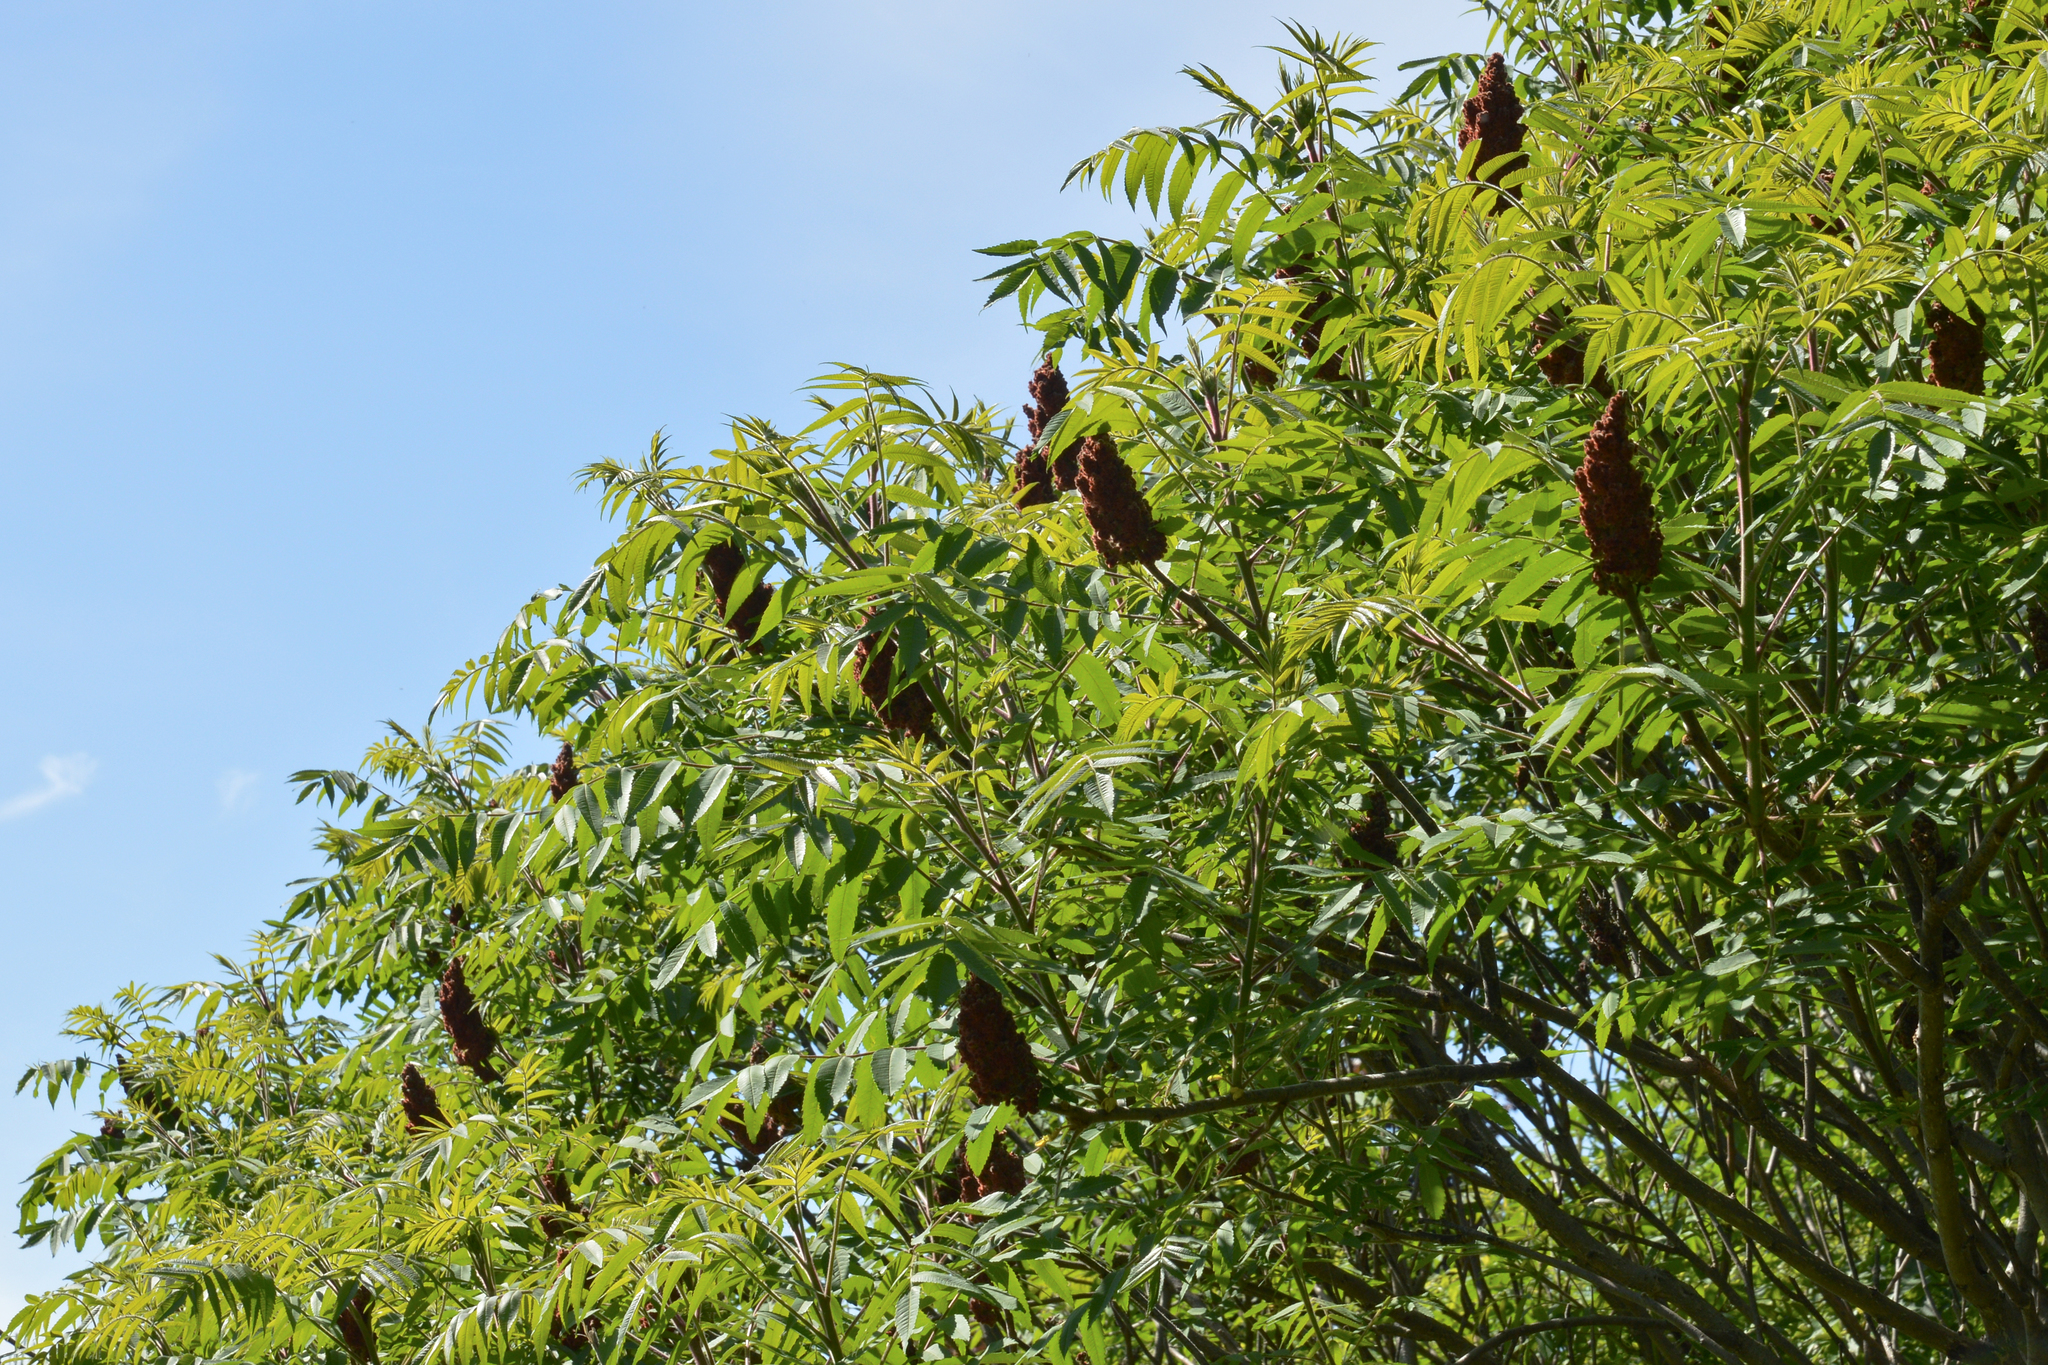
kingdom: Plantae
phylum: Tracheophyta
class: Magnoliopsida
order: Sapindales
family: Anacardiaceae
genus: Rhus
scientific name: Rhus typhina
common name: Staghorn sumac
